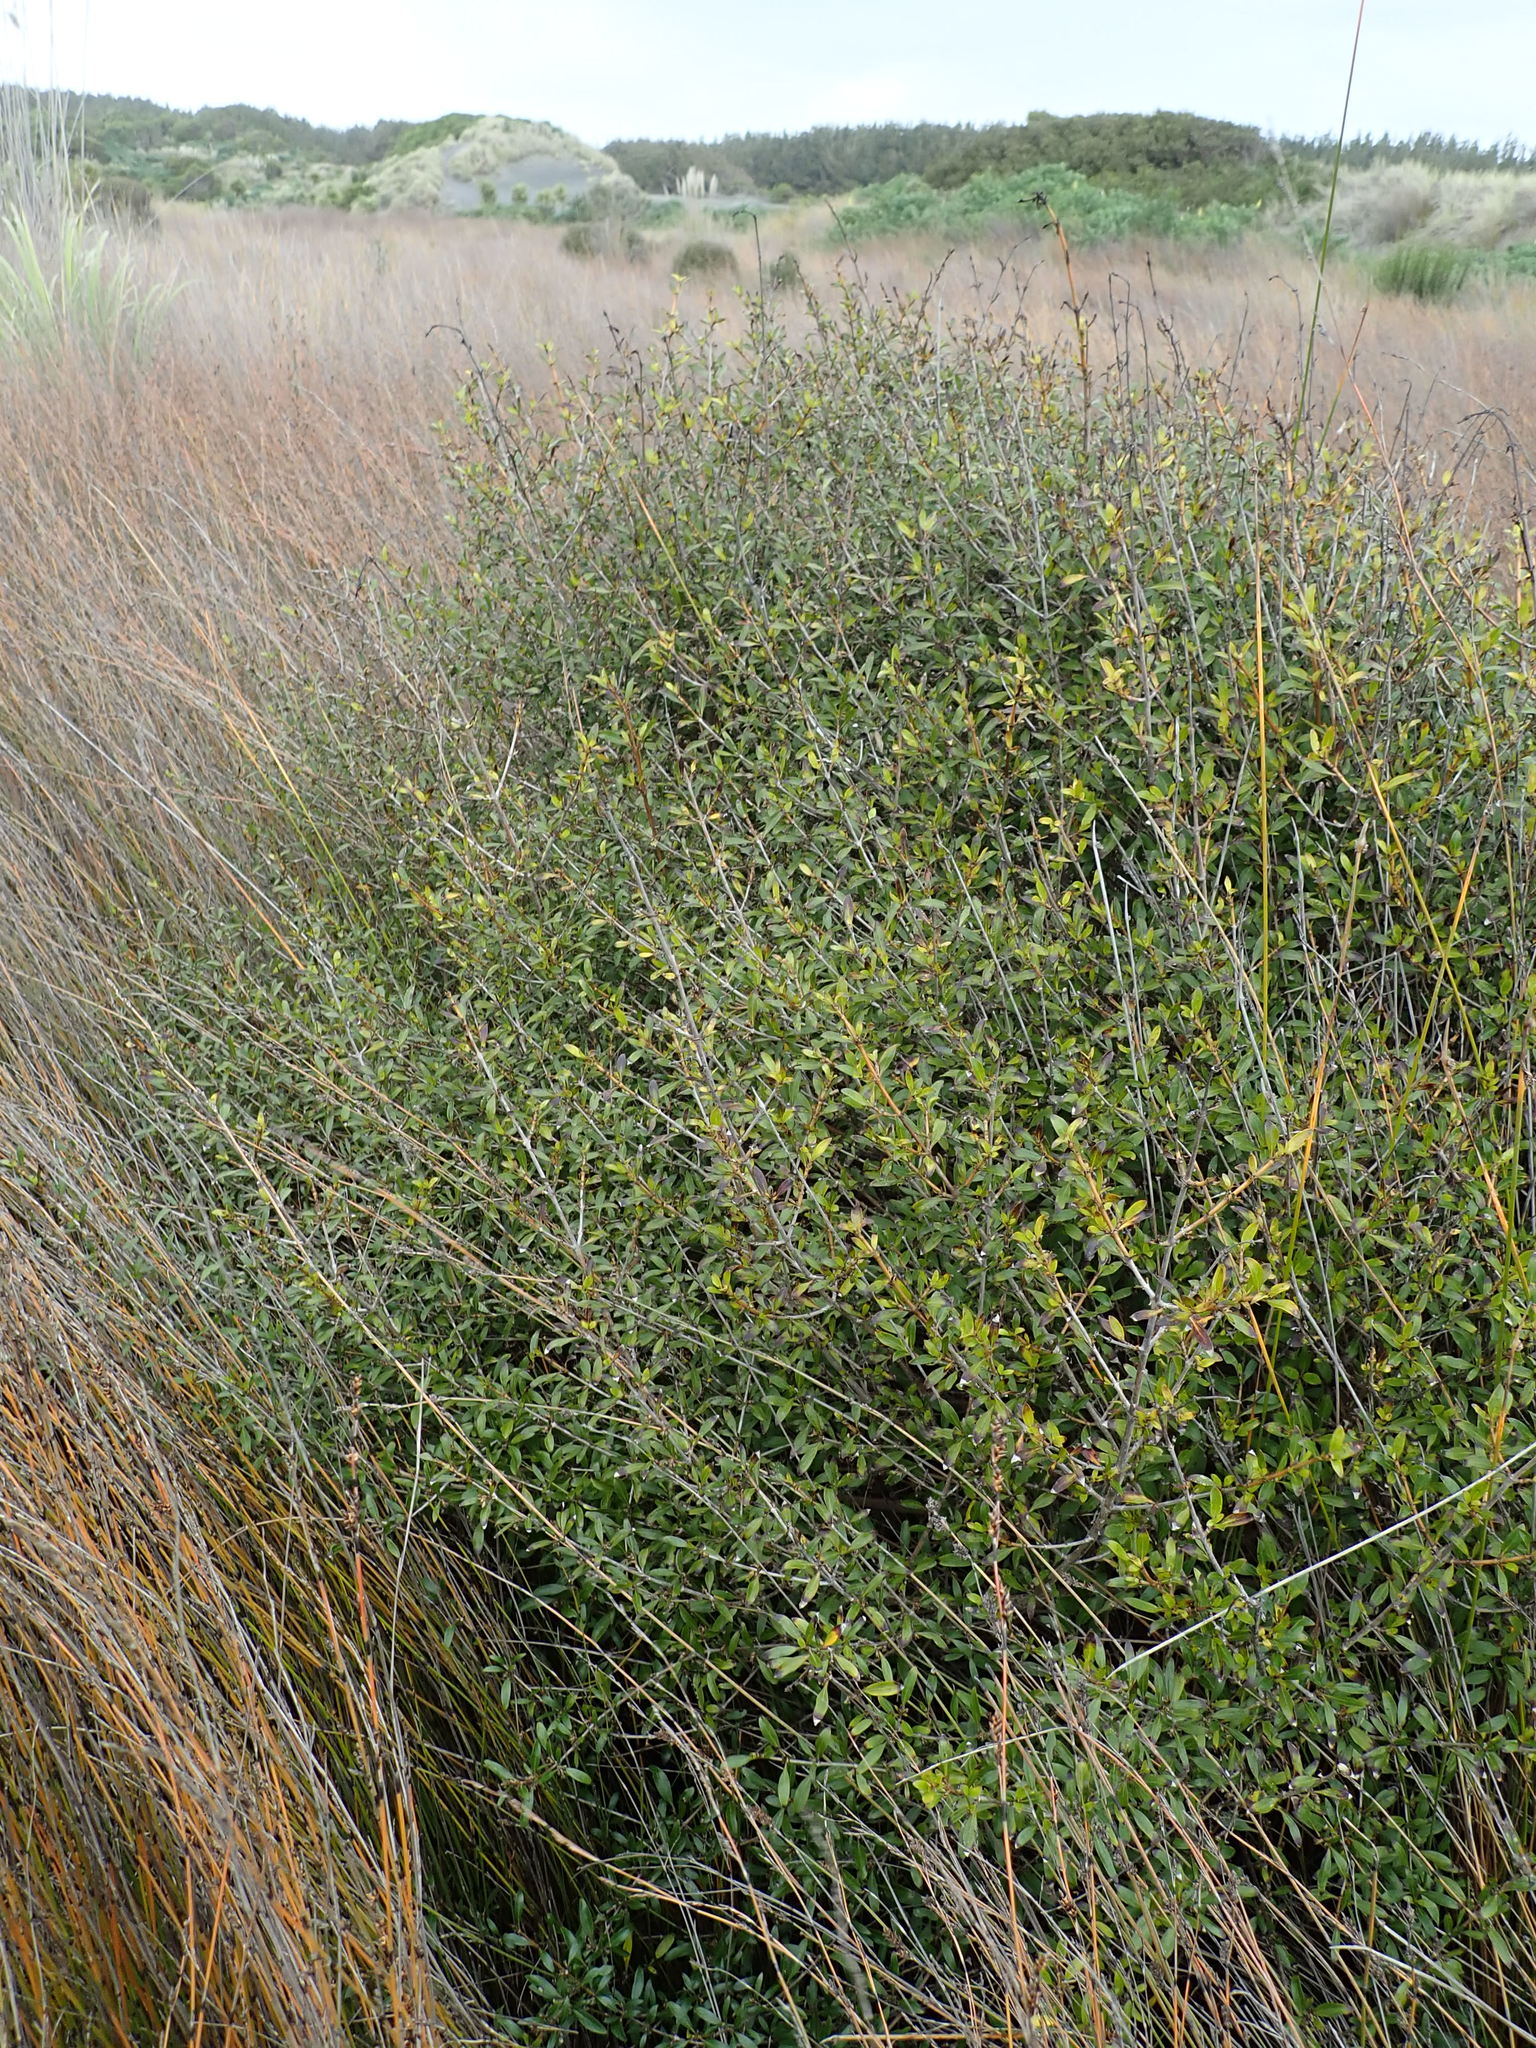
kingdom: Plantae
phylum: Tracheophyta
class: Magnoliopsida
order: Gentianales
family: Rubiaceae
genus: Coprosma
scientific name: Coprosma cunninghamii
